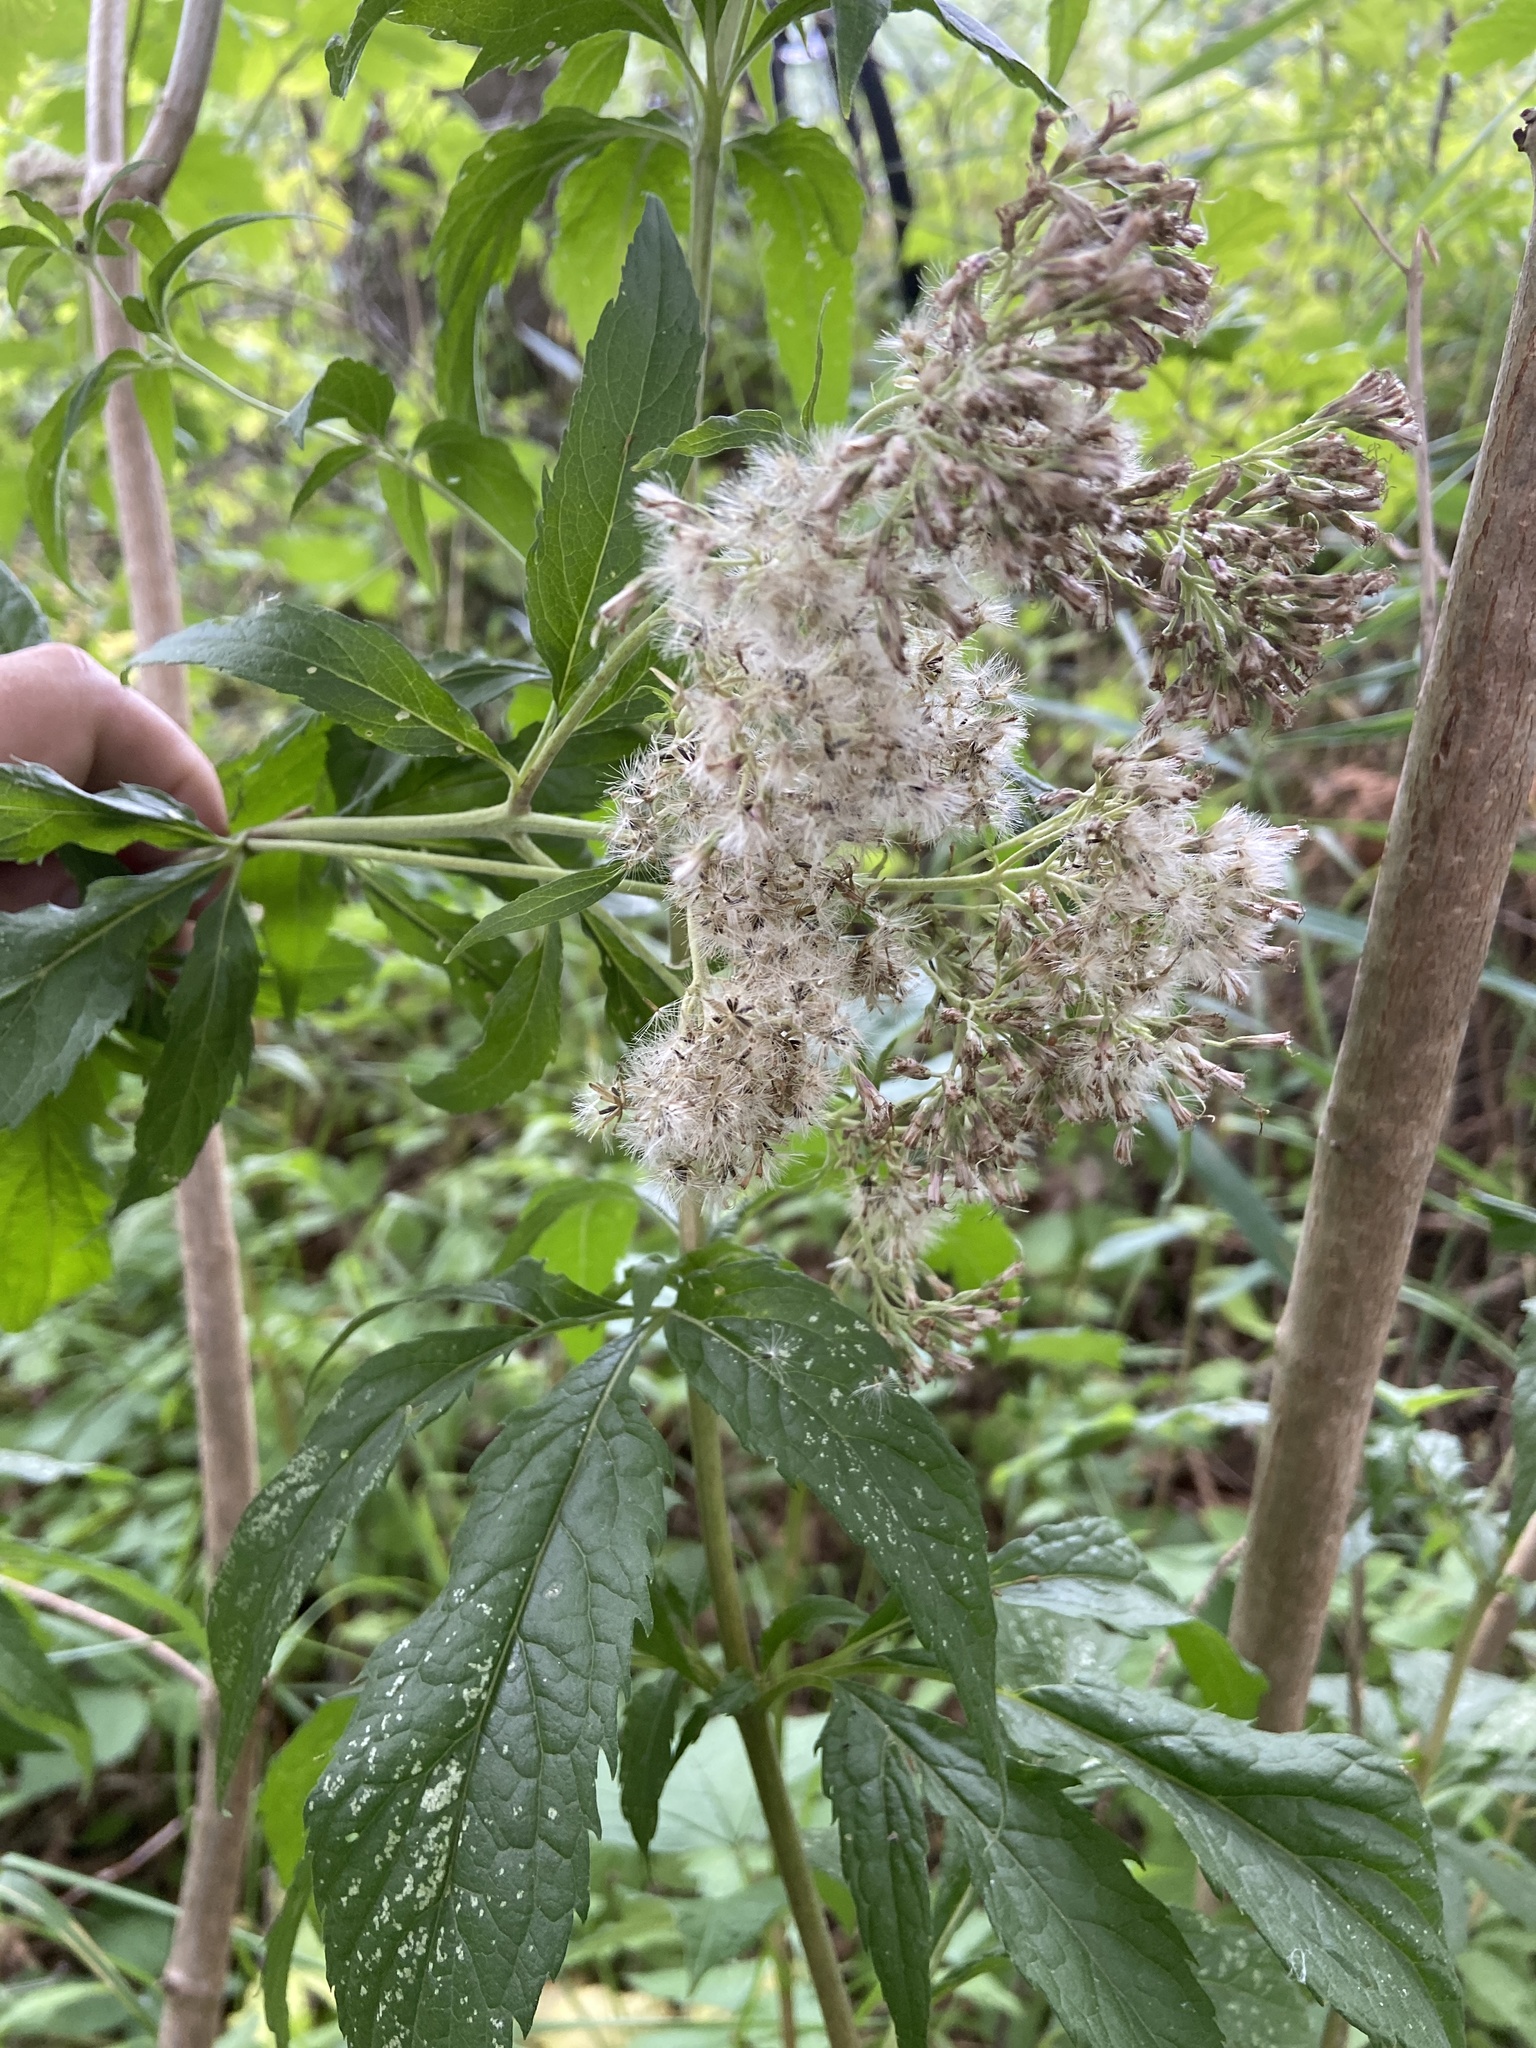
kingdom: Plantae
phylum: Tracheophyta
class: Magnoliopsida
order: Asterales
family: Asteraceae
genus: Eupatorium
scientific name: Eupatorium cannabinum
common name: Hemp-agrimony
